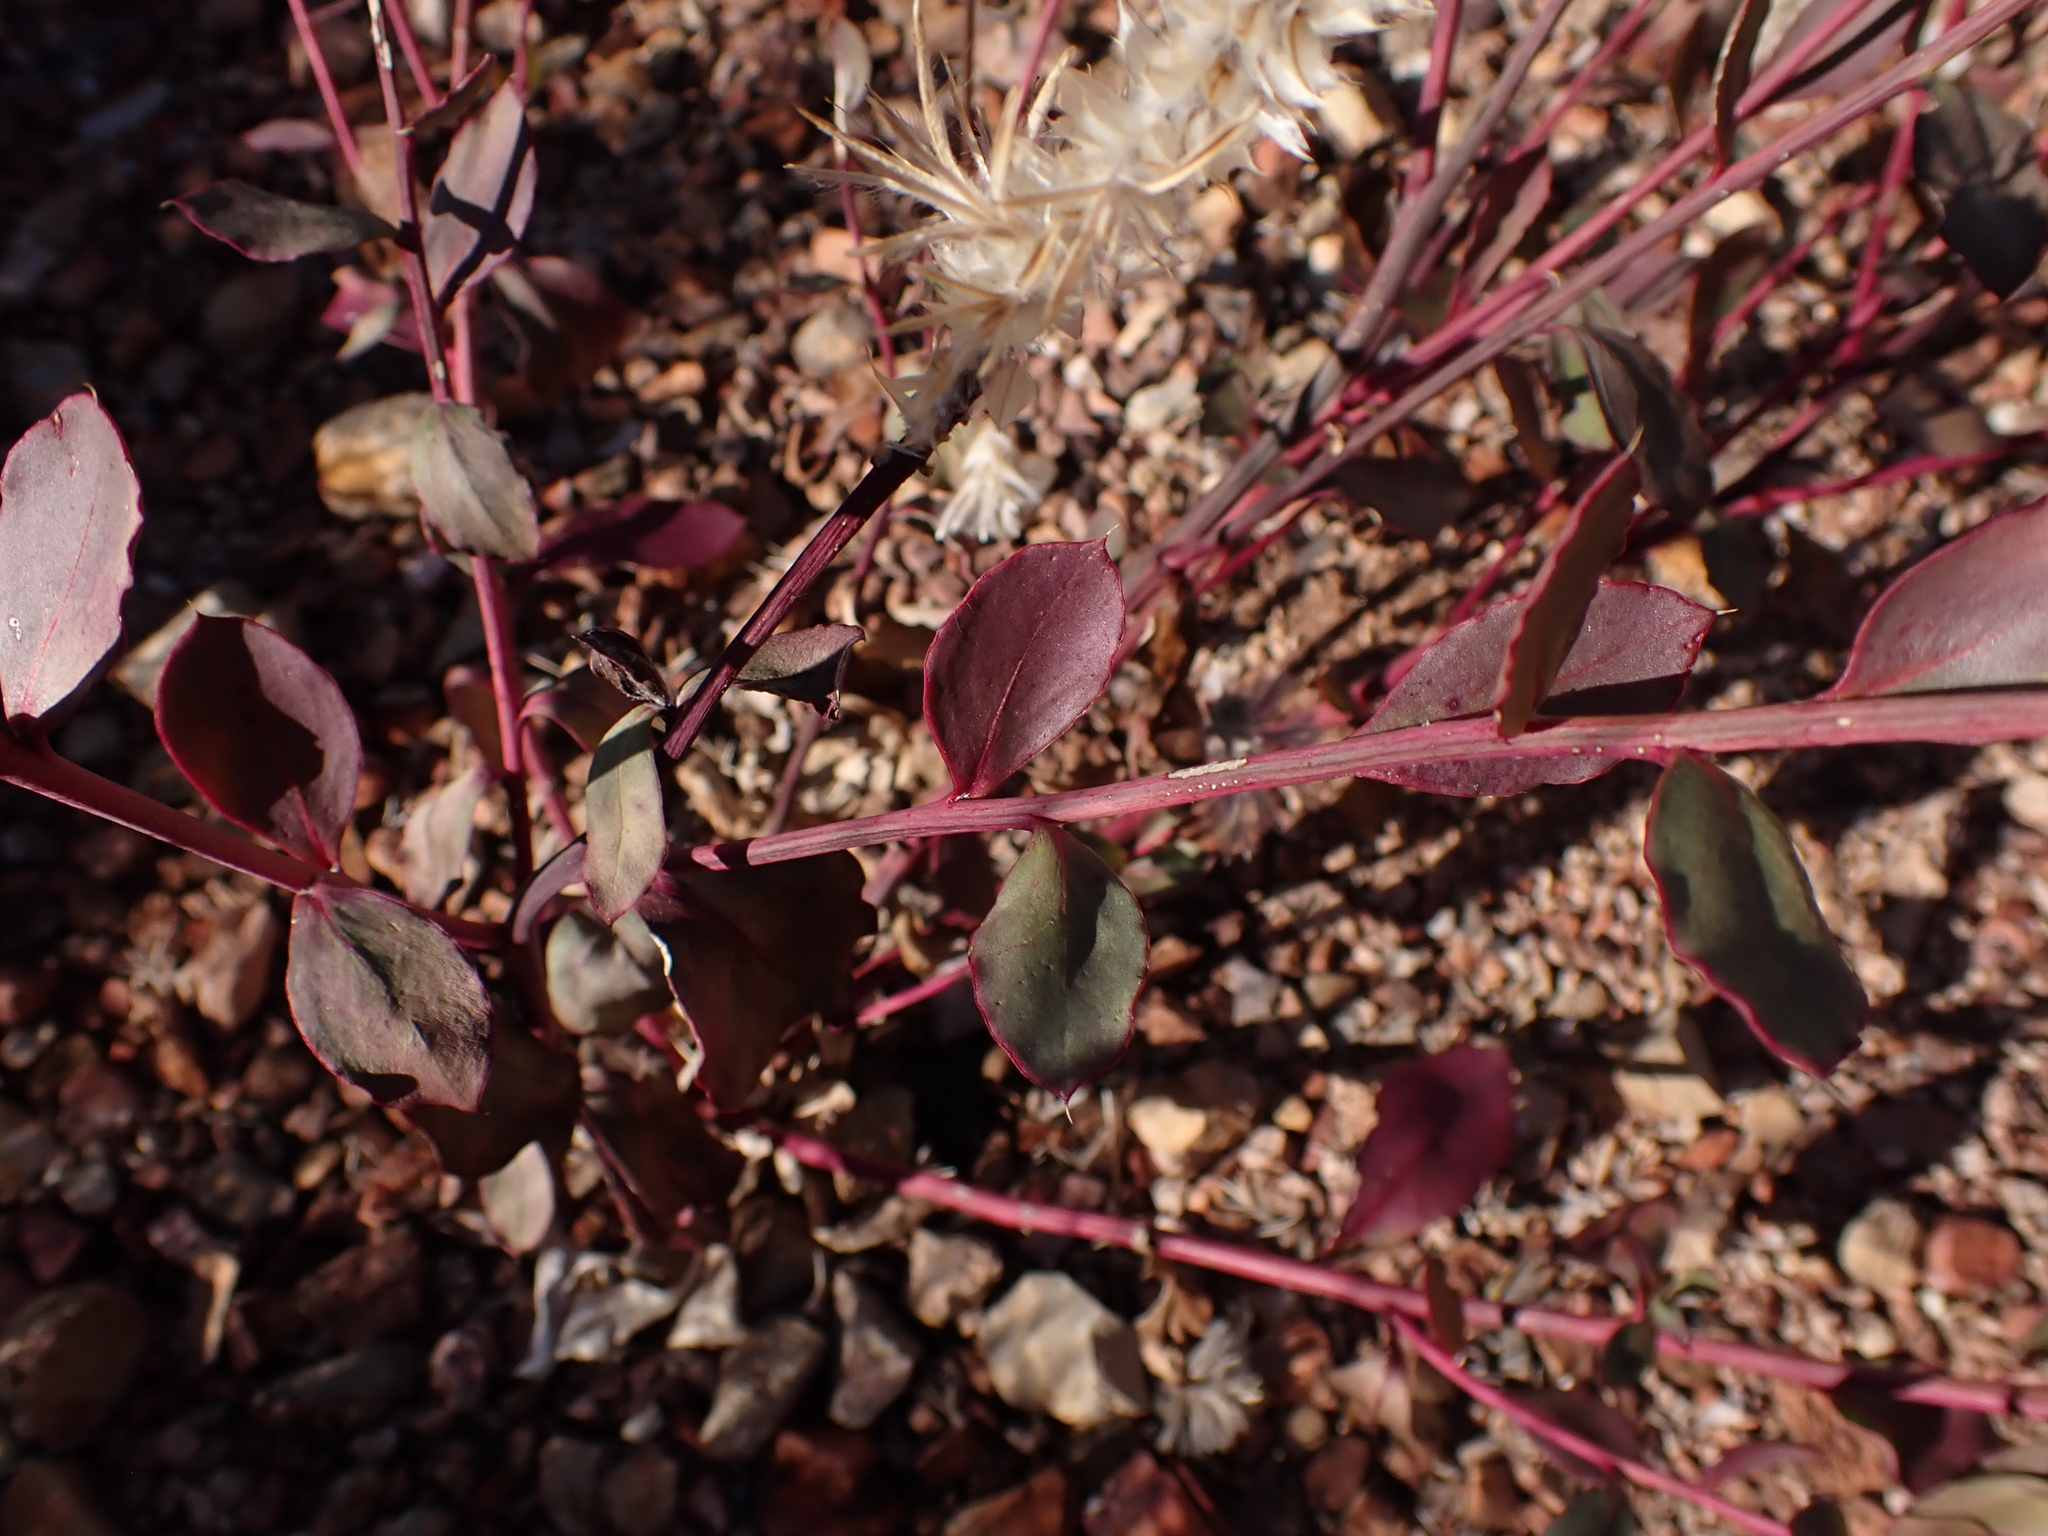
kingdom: Plantae
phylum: Tracheophyta
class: Magnoliopsida
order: Caryophyllales
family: Amaranthaceae
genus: Ptilotus
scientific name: Ptilotus exaltatus
